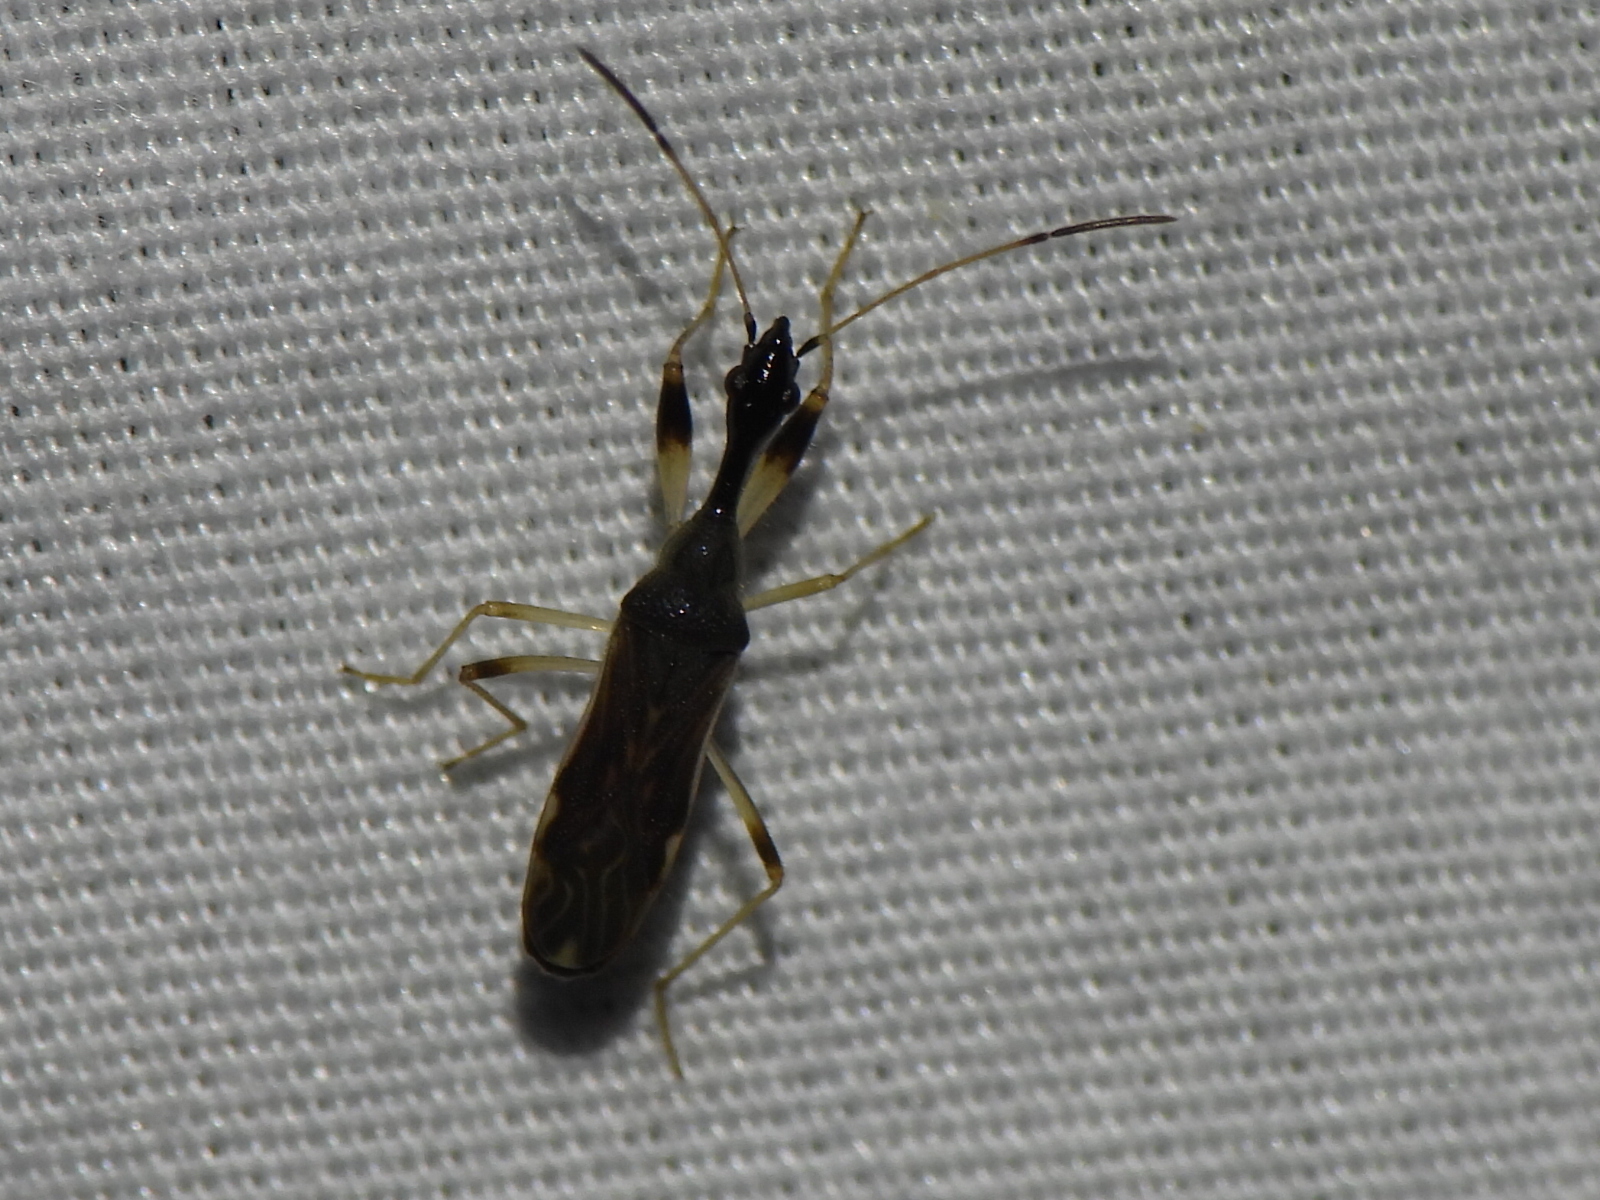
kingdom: Animalia
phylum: Arthropoda
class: Insecta
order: Hemiptera
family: Rhyparochromidae
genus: Myodocha
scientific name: Myodocha serripes
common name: Long-necked seed bug
